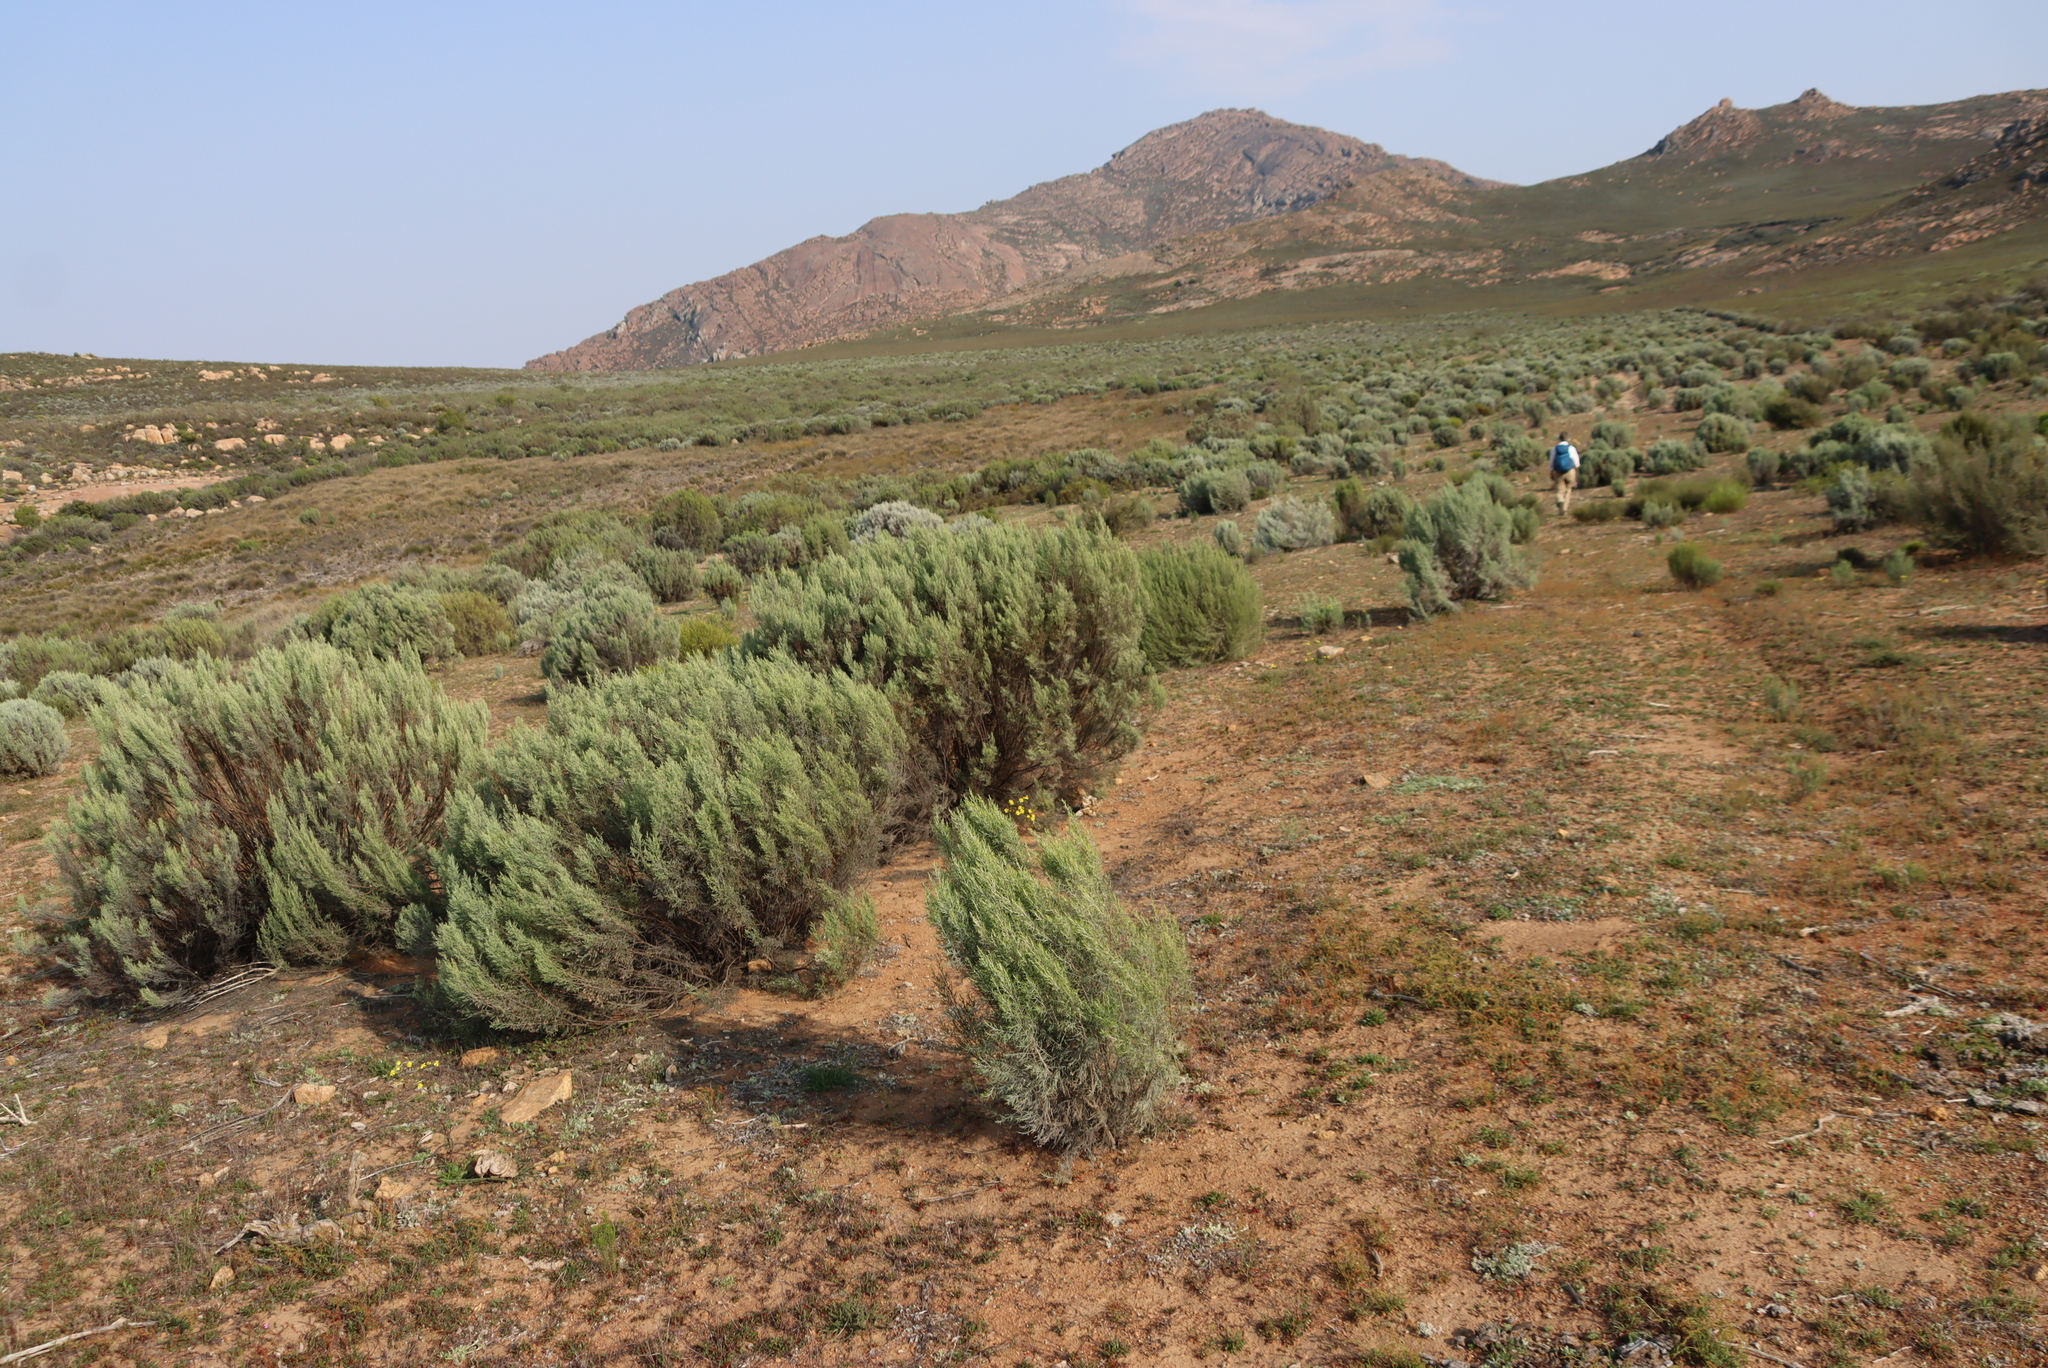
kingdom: Plantae
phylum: Tracheophyta
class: Magnoliopsida
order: Asterales
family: Asteraceae
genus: Dicerothamnus
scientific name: Dicerothamnus rhinocerotis
